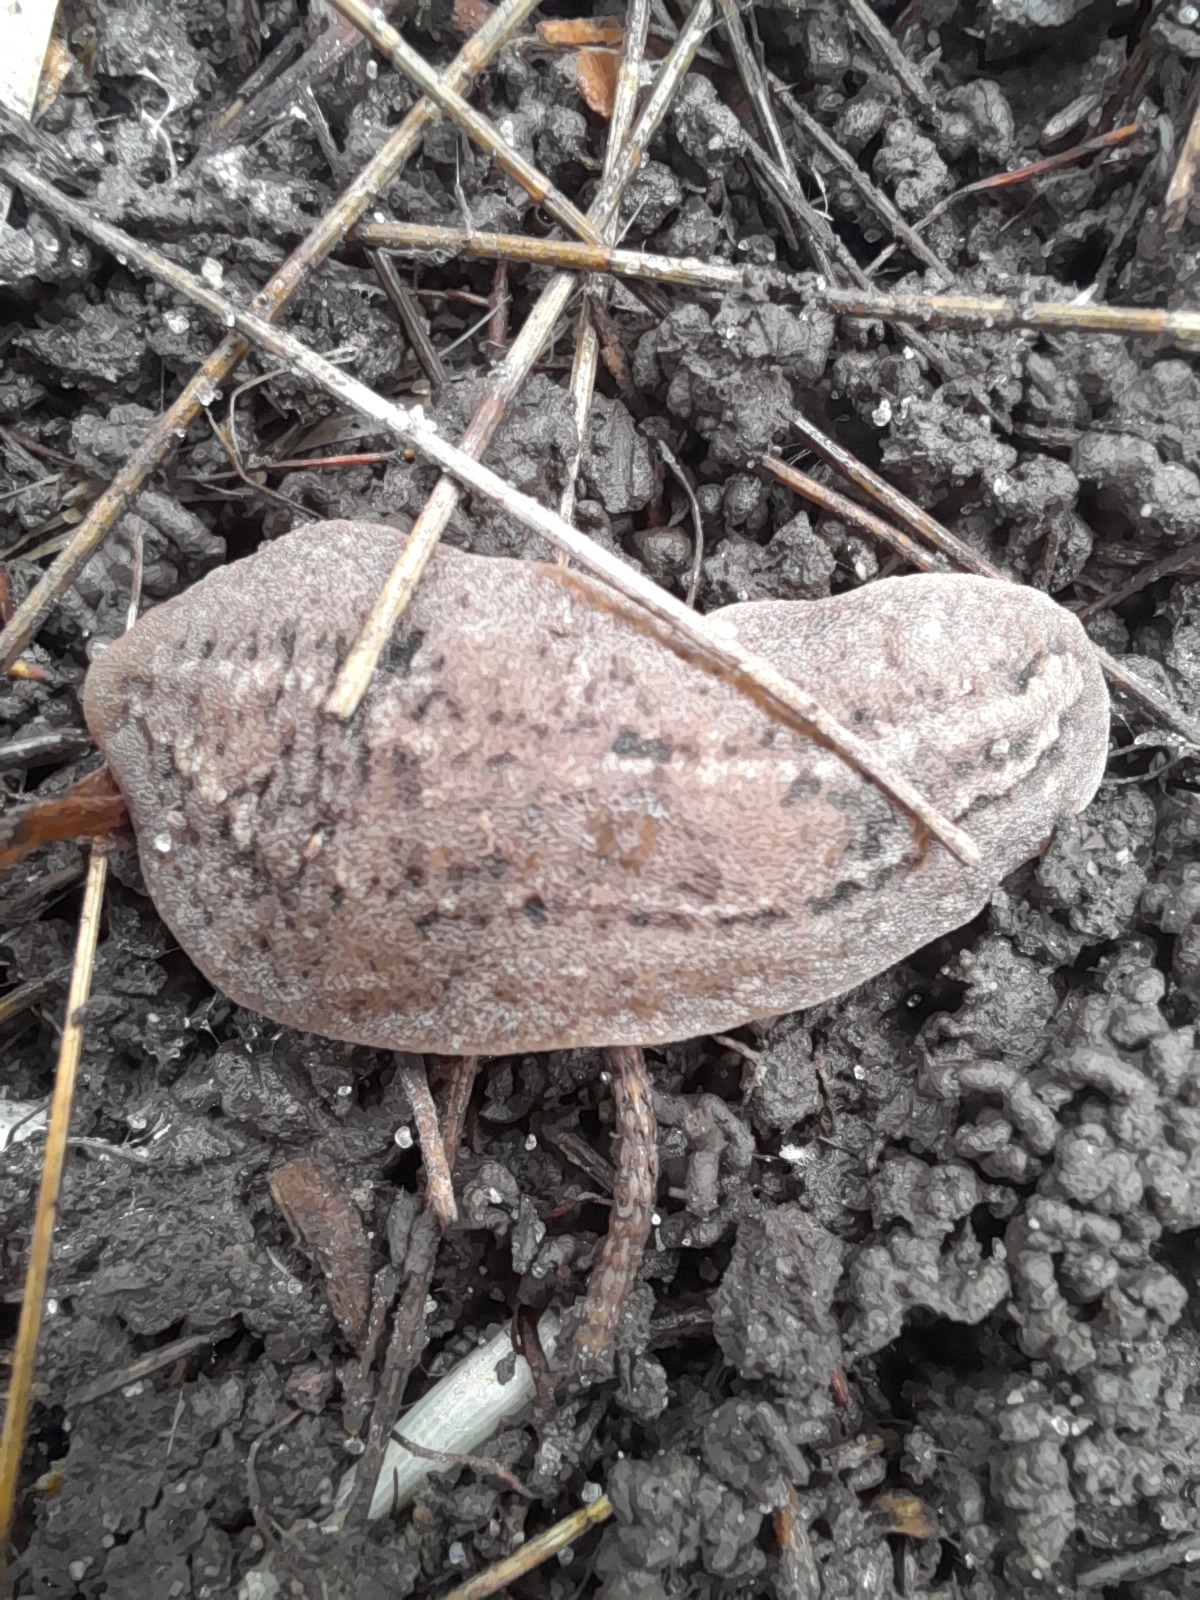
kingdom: Animalia
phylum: Mollusca
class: Gastropoda
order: Systellommatophora
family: Veronicellidae
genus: Phyllocaulis
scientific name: Phyllocaulis soleiformis
